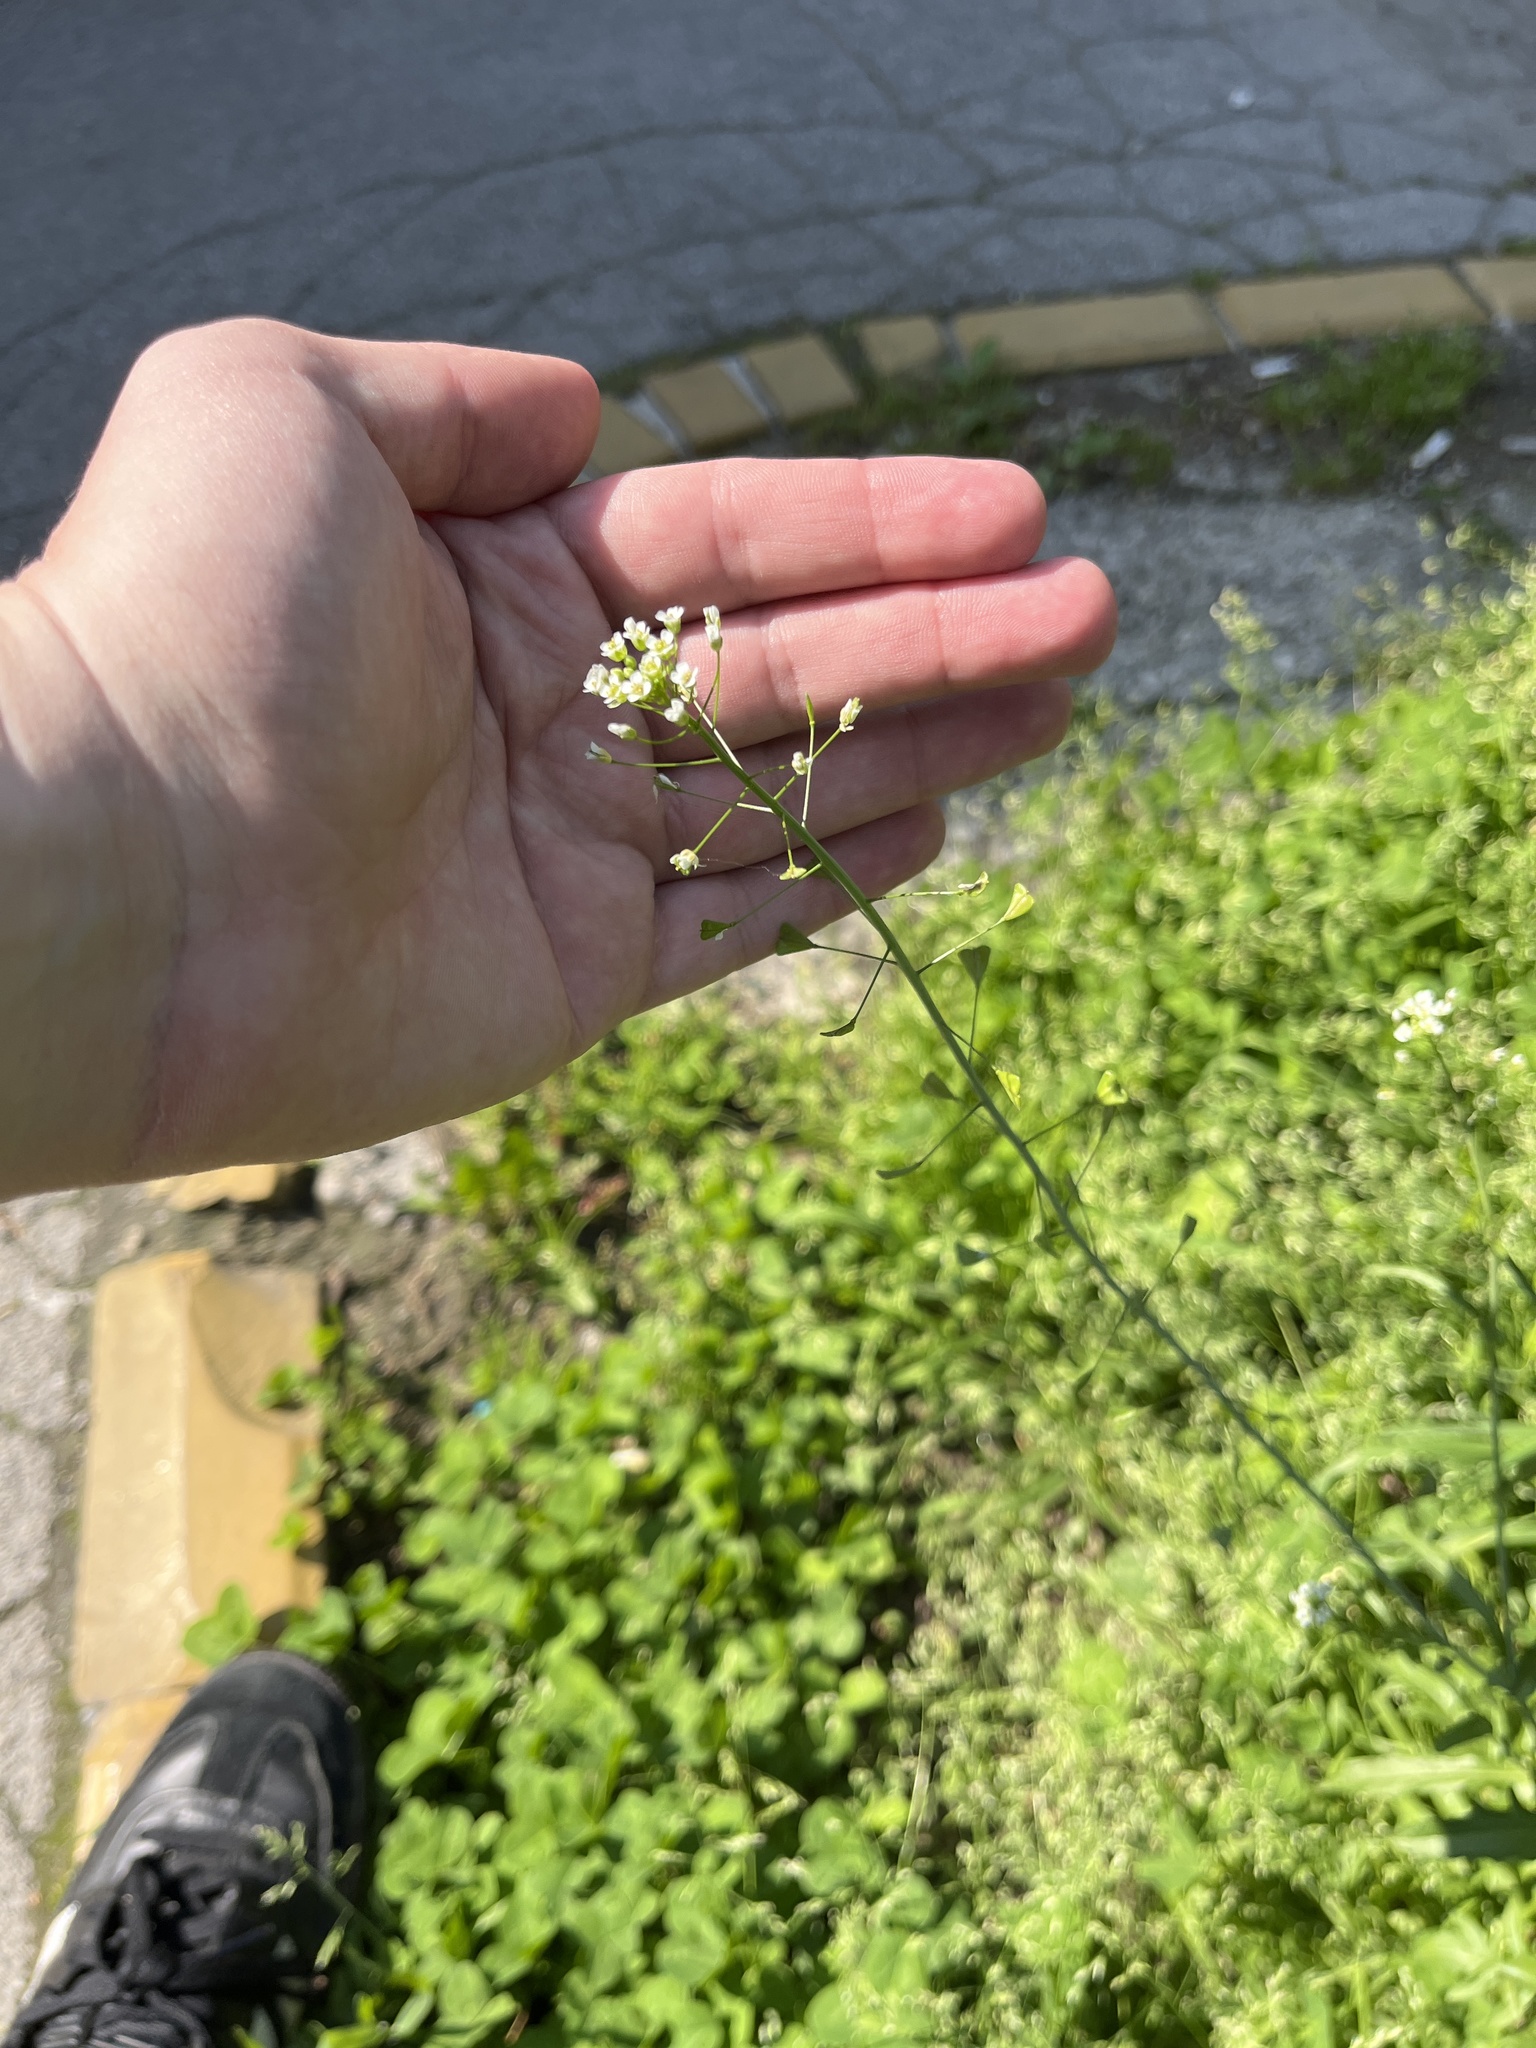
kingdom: Plantae
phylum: Tracheophyta
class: Magnoliopsida
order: Brassicales
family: Brassicaceae
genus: Capsella
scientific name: Capsella bursa-pastoris
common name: Shepherd's purse
